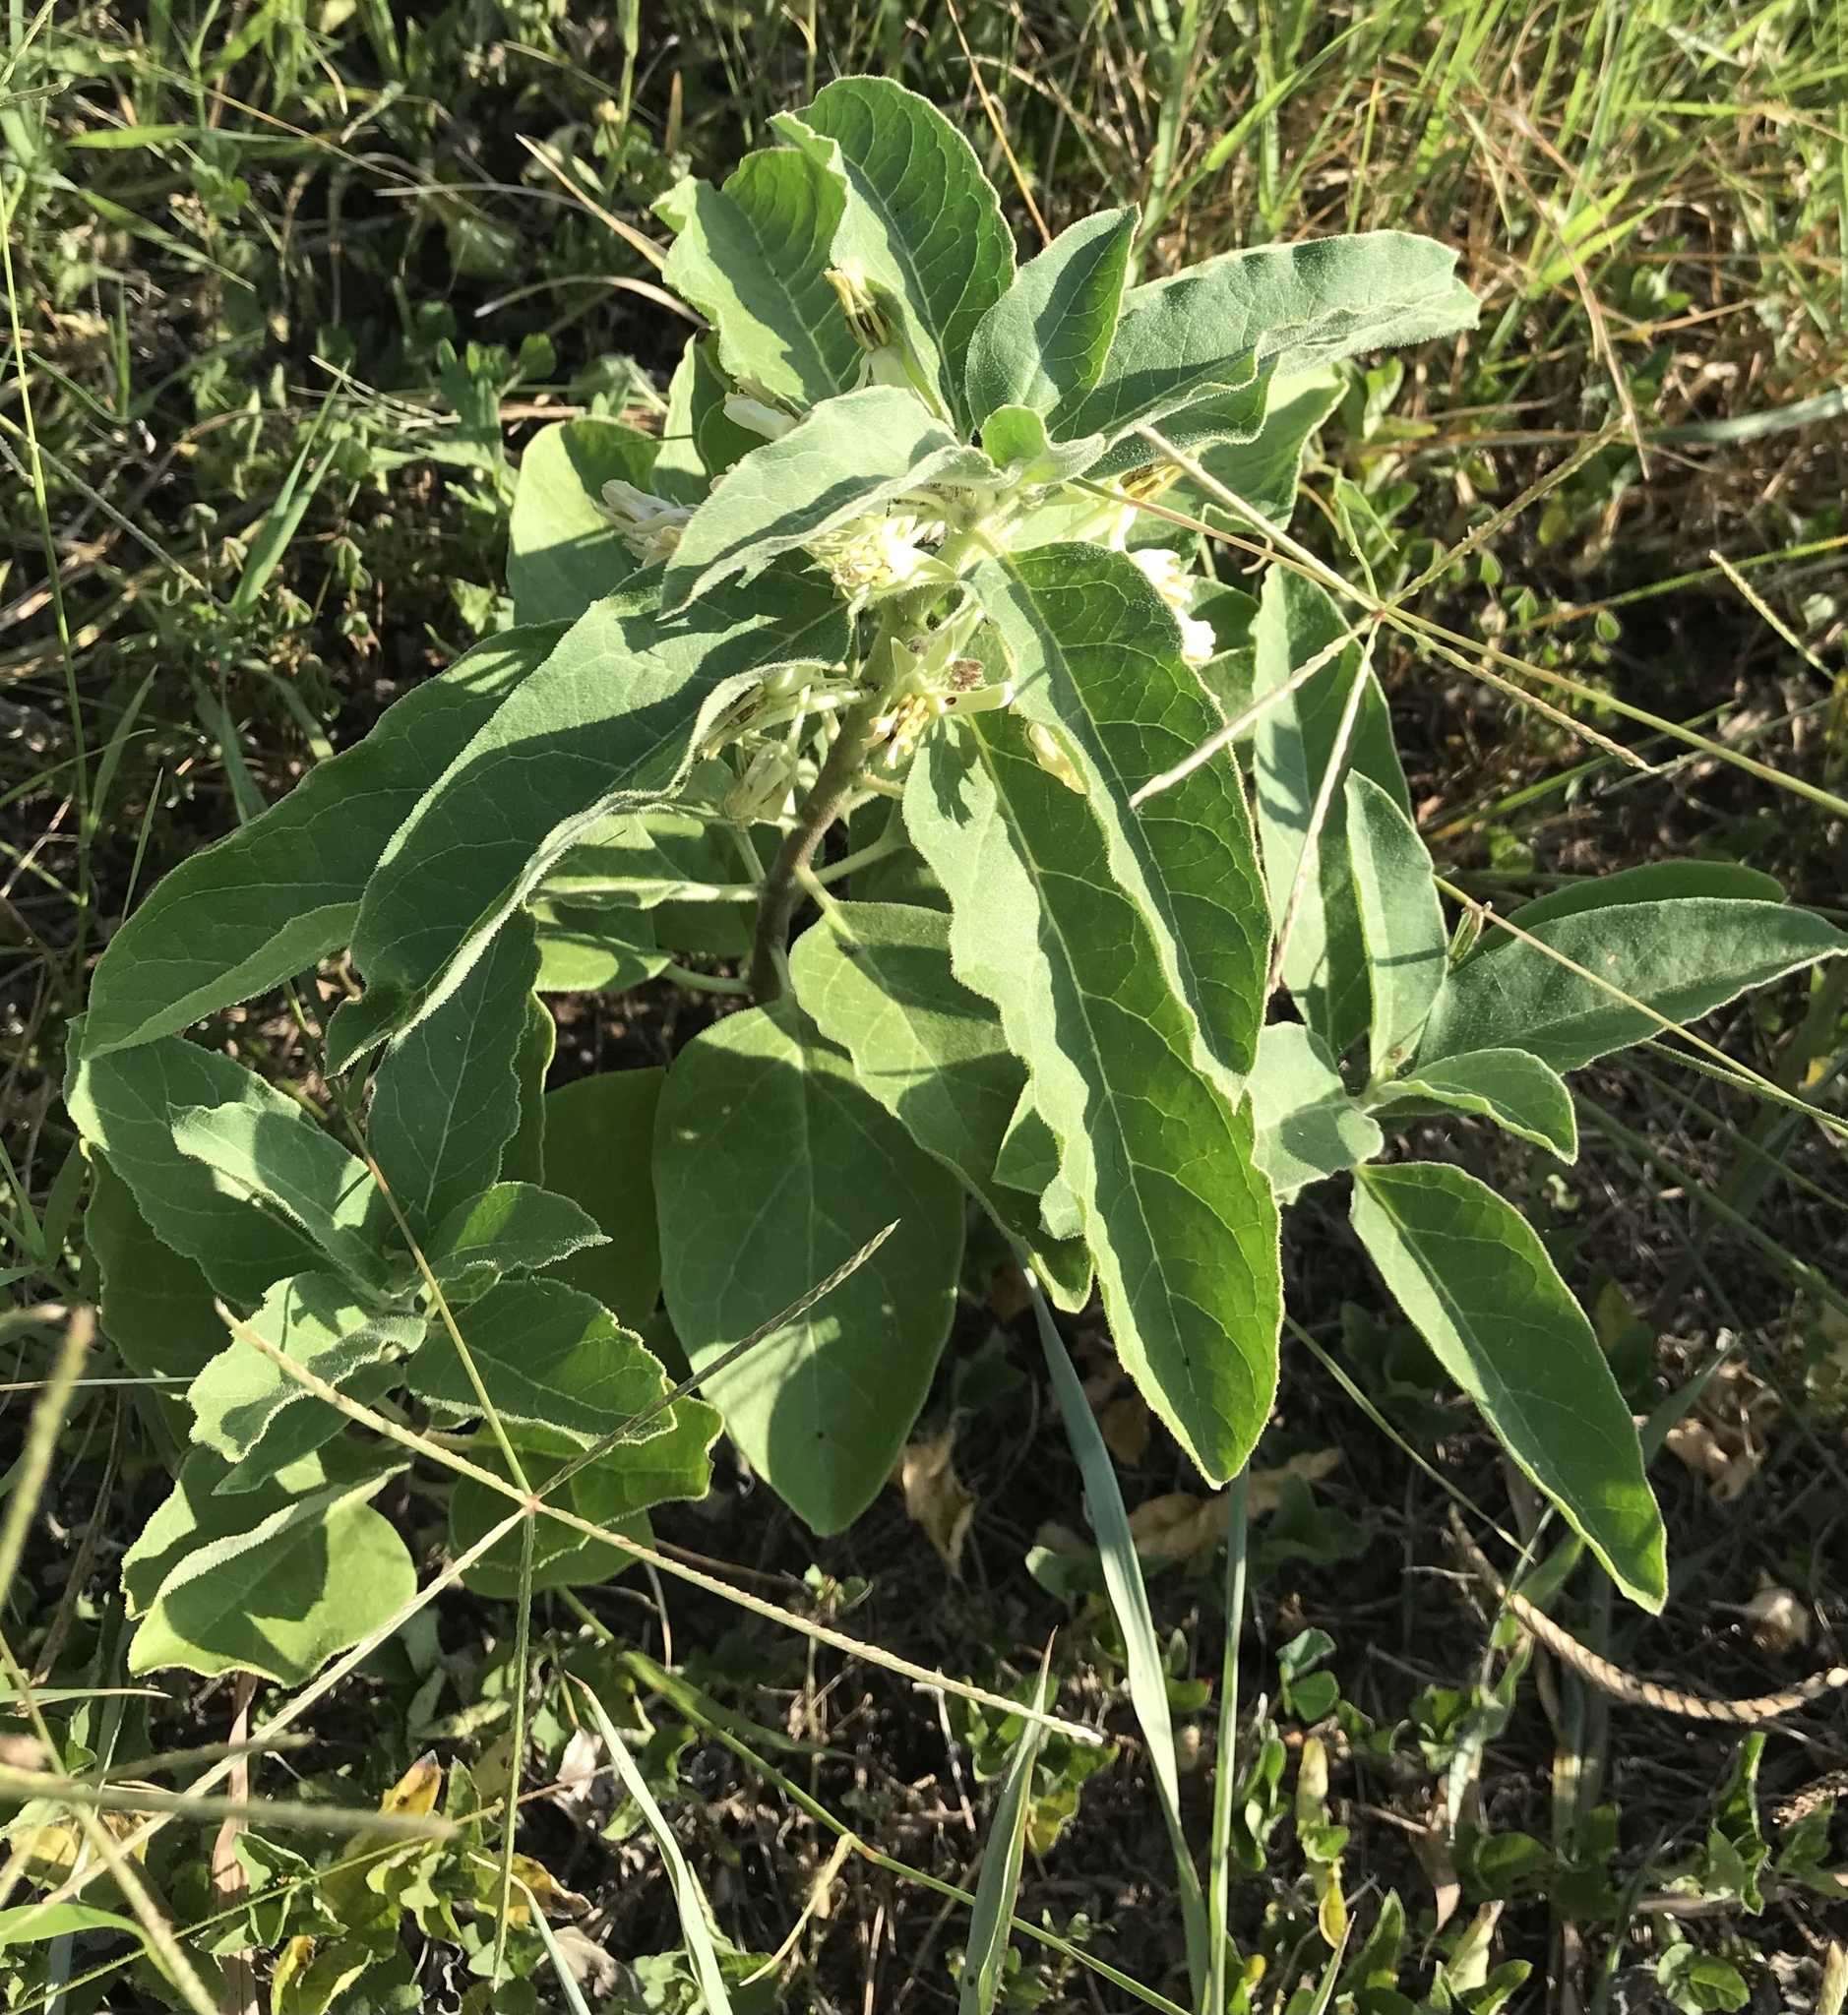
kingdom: Plantae
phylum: Tracheophyta
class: Magnoliopsida
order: Gentianales
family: Apocynaceae
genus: Asclepias
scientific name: Asclepias oenotheroides
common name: Zizotes milkweed
